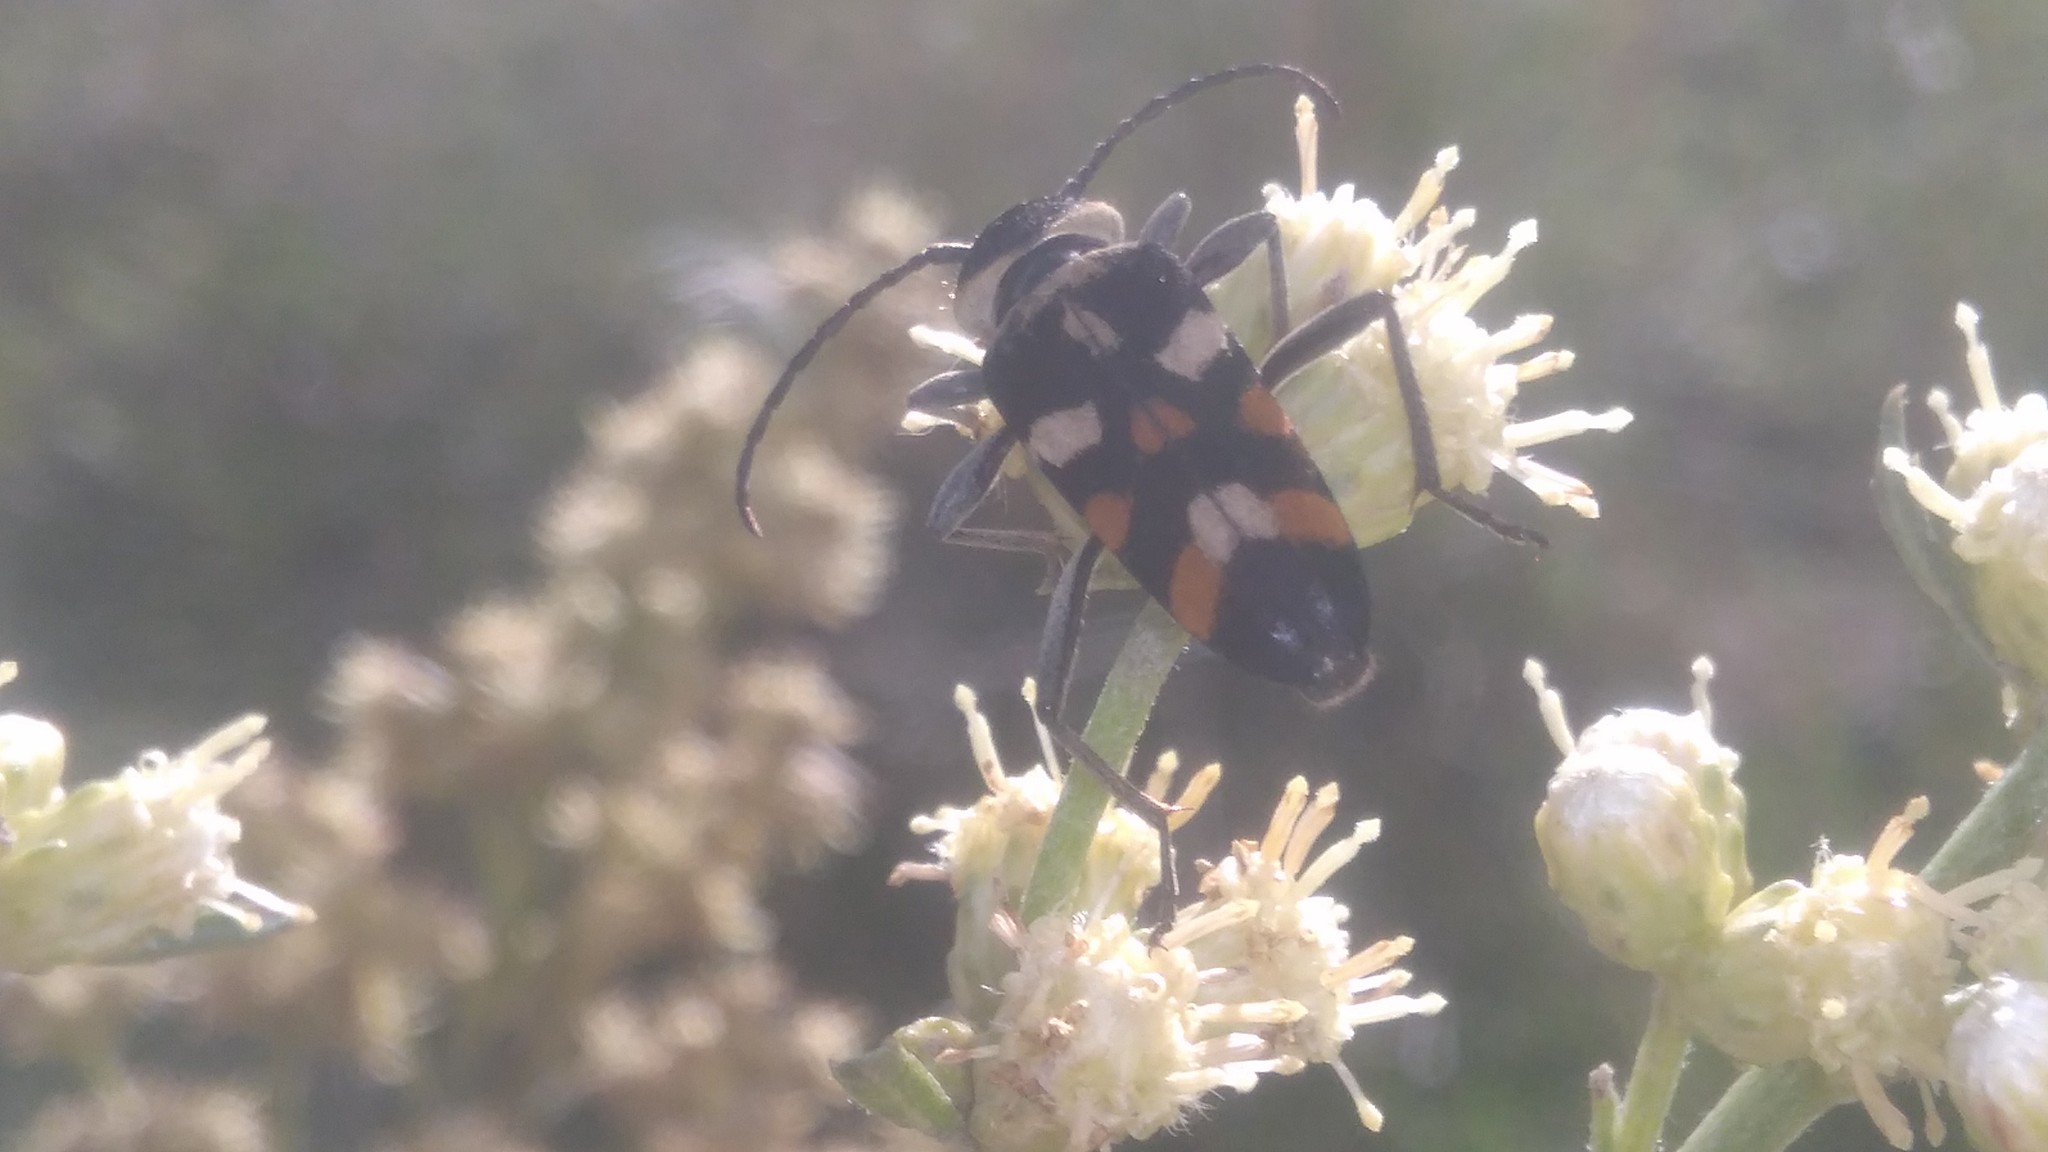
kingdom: Animalia
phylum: Arthropoda
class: Insecta
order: Coleoptera
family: Cerambycidae
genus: Megacyllene
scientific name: Megacyllene mellyi
